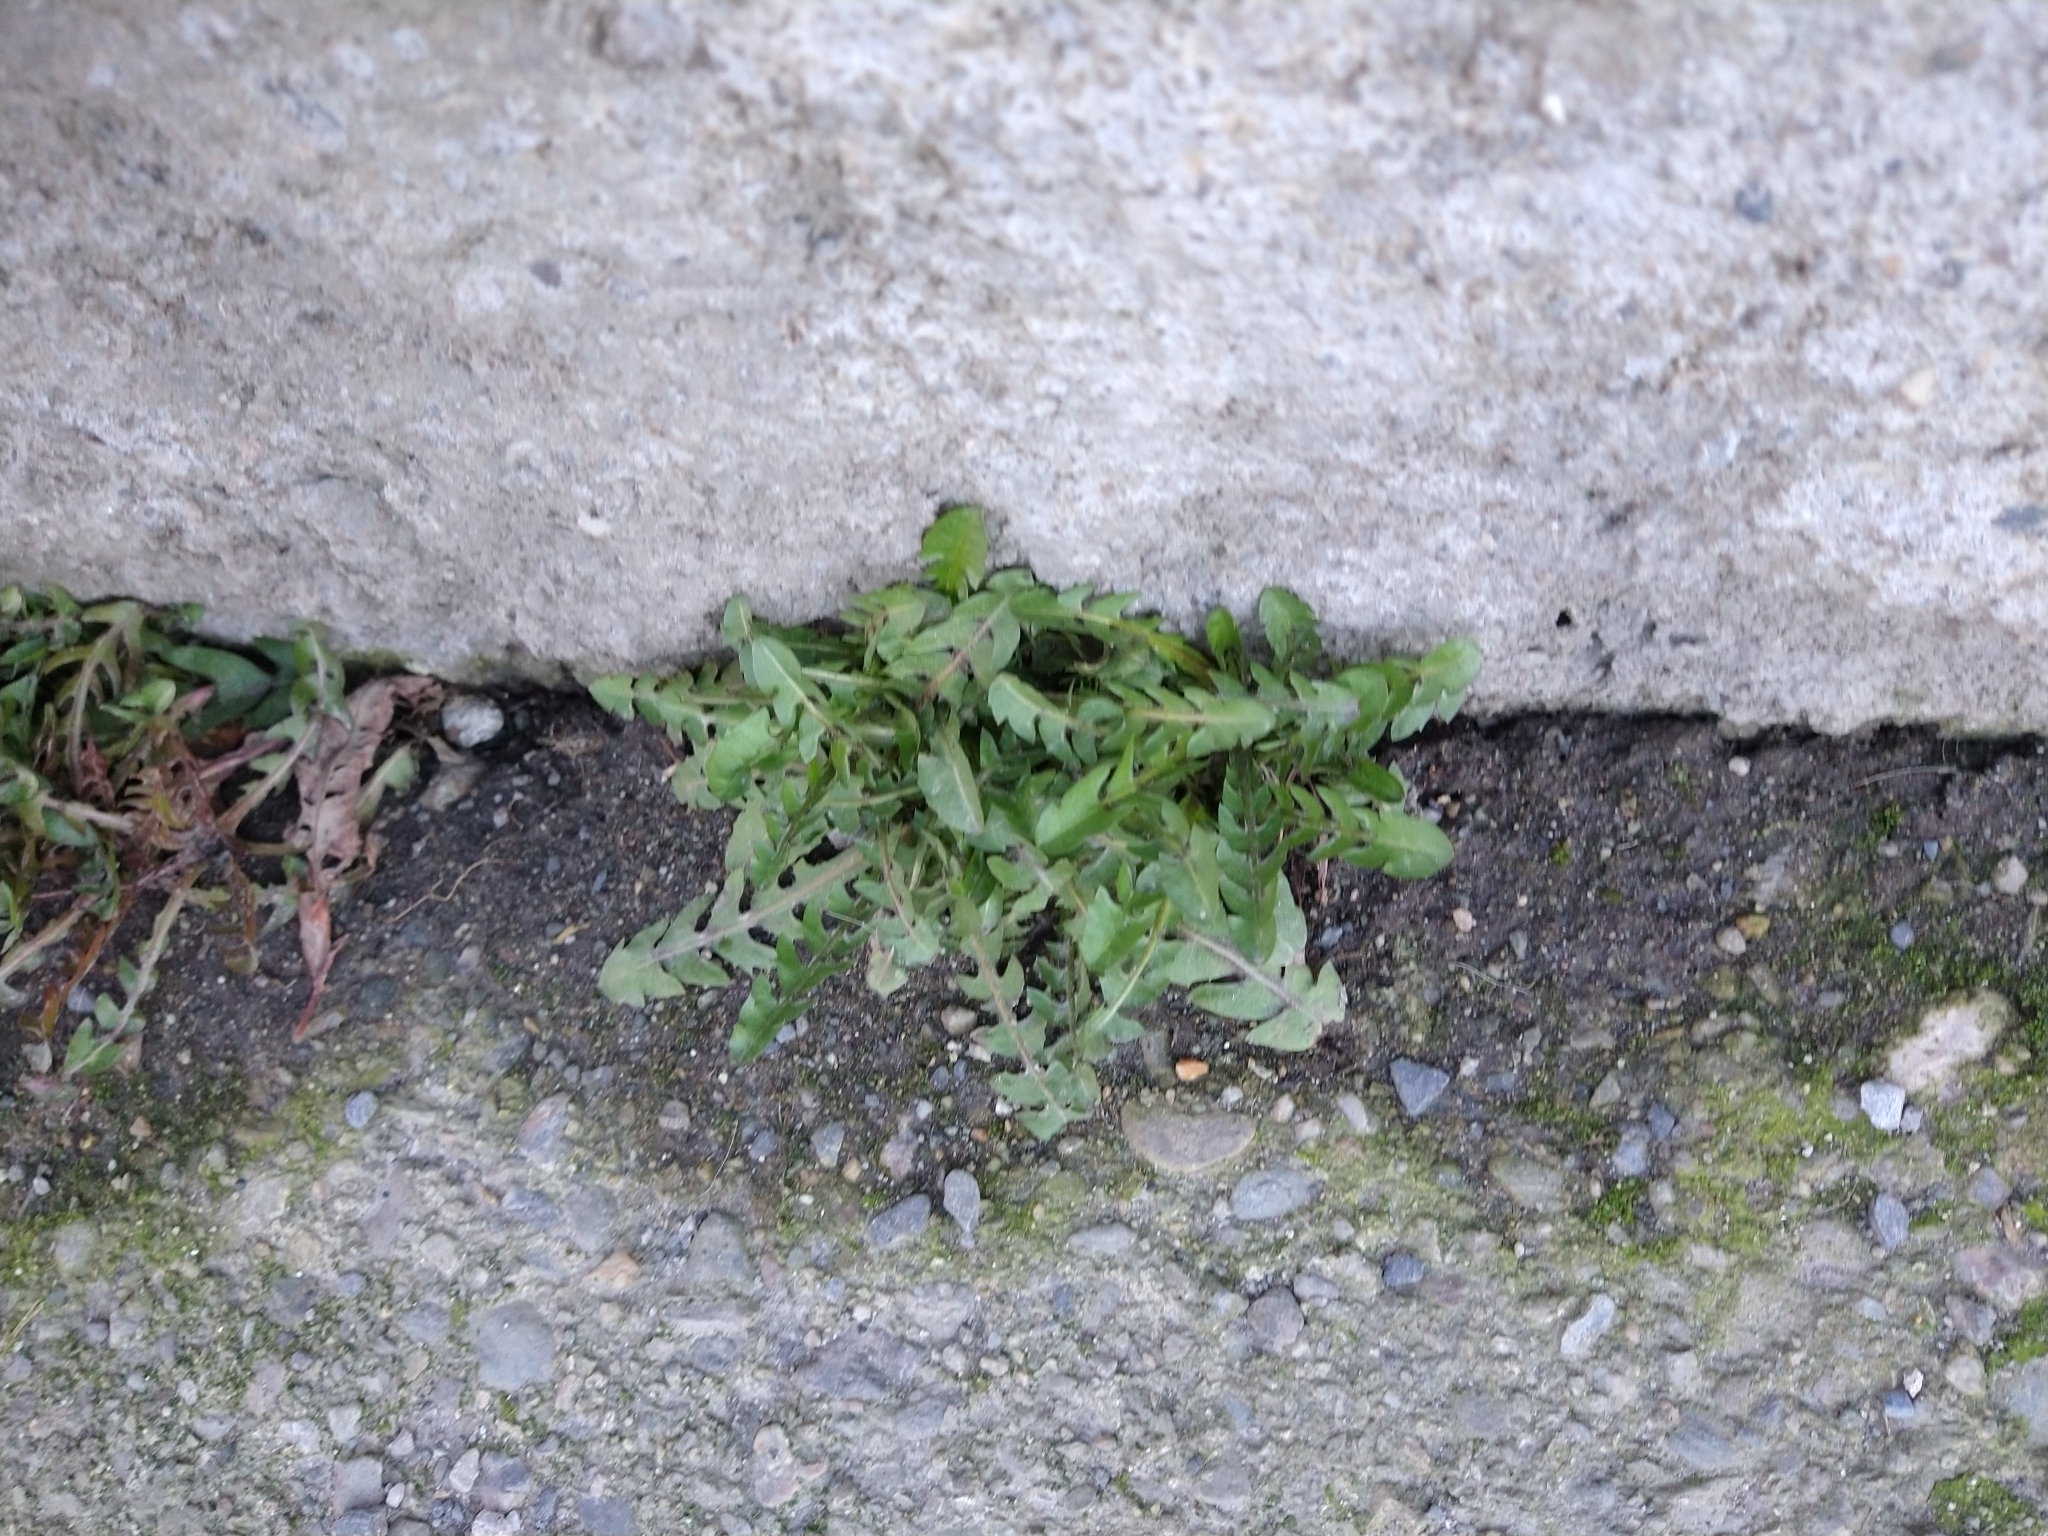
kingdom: Plantae
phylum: Tracheophyta
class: Magnoliopsida
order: Asterales
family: Asteraceae
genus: Taraxacum
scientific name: Taraxacum officinale
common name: Common dandelion
